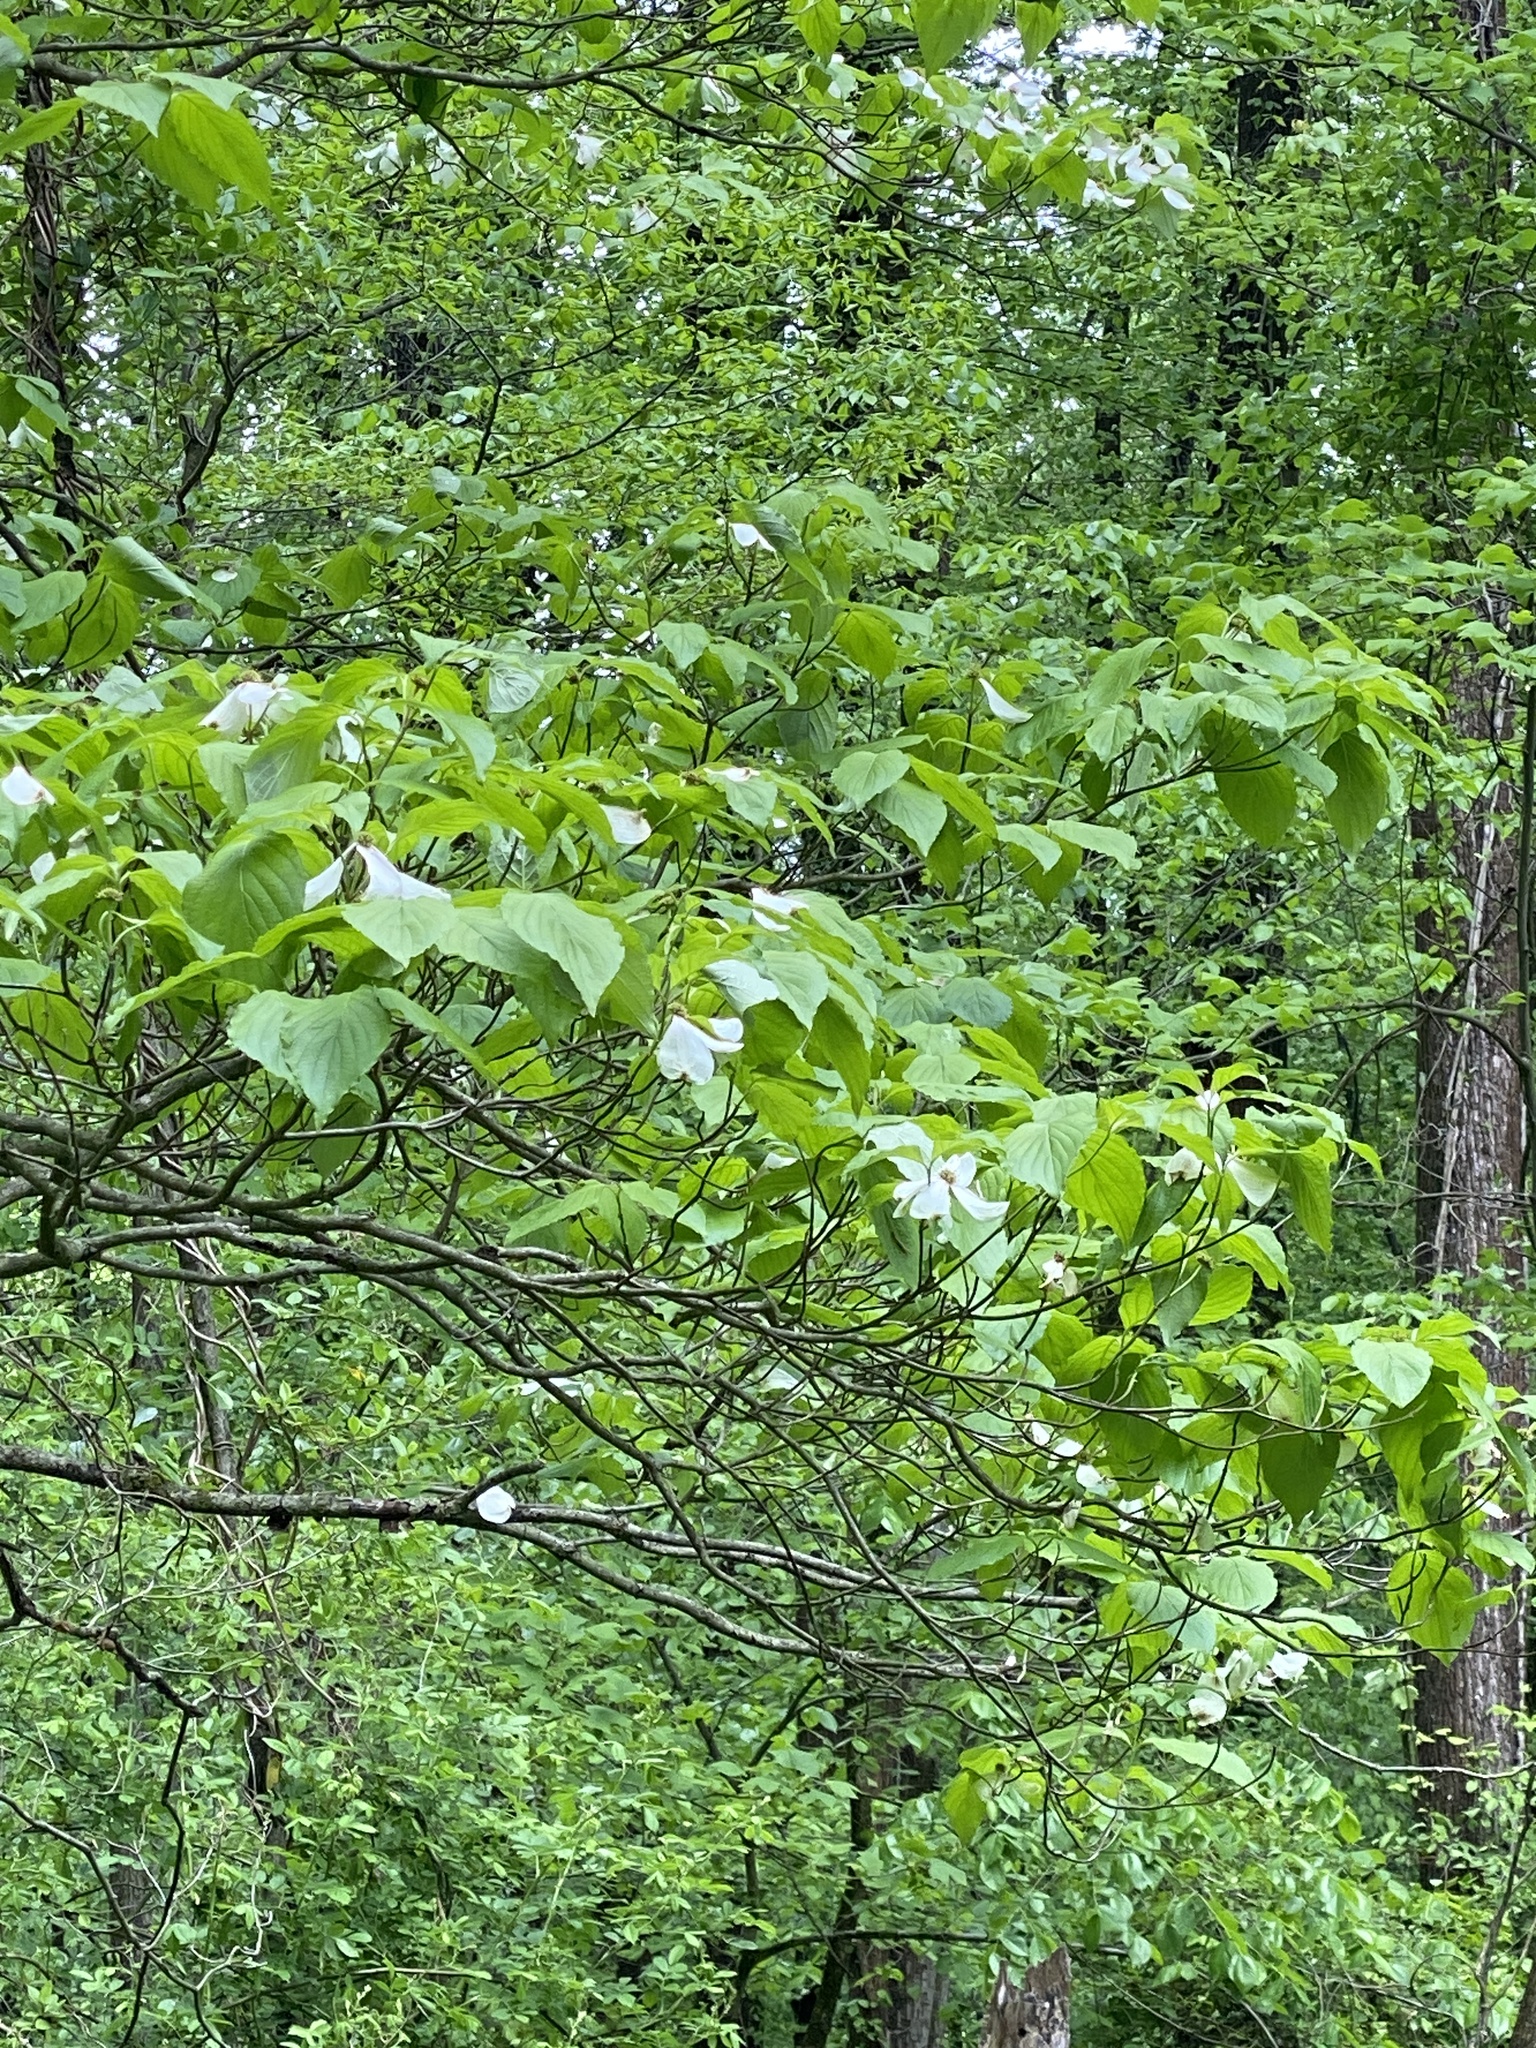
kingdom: Plantae
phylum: Tracheophyta
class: Magnoliopsida
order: Cornales
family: Cornaceae
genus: Cornus
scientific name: Cornus florida
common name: Flowering dogwood
